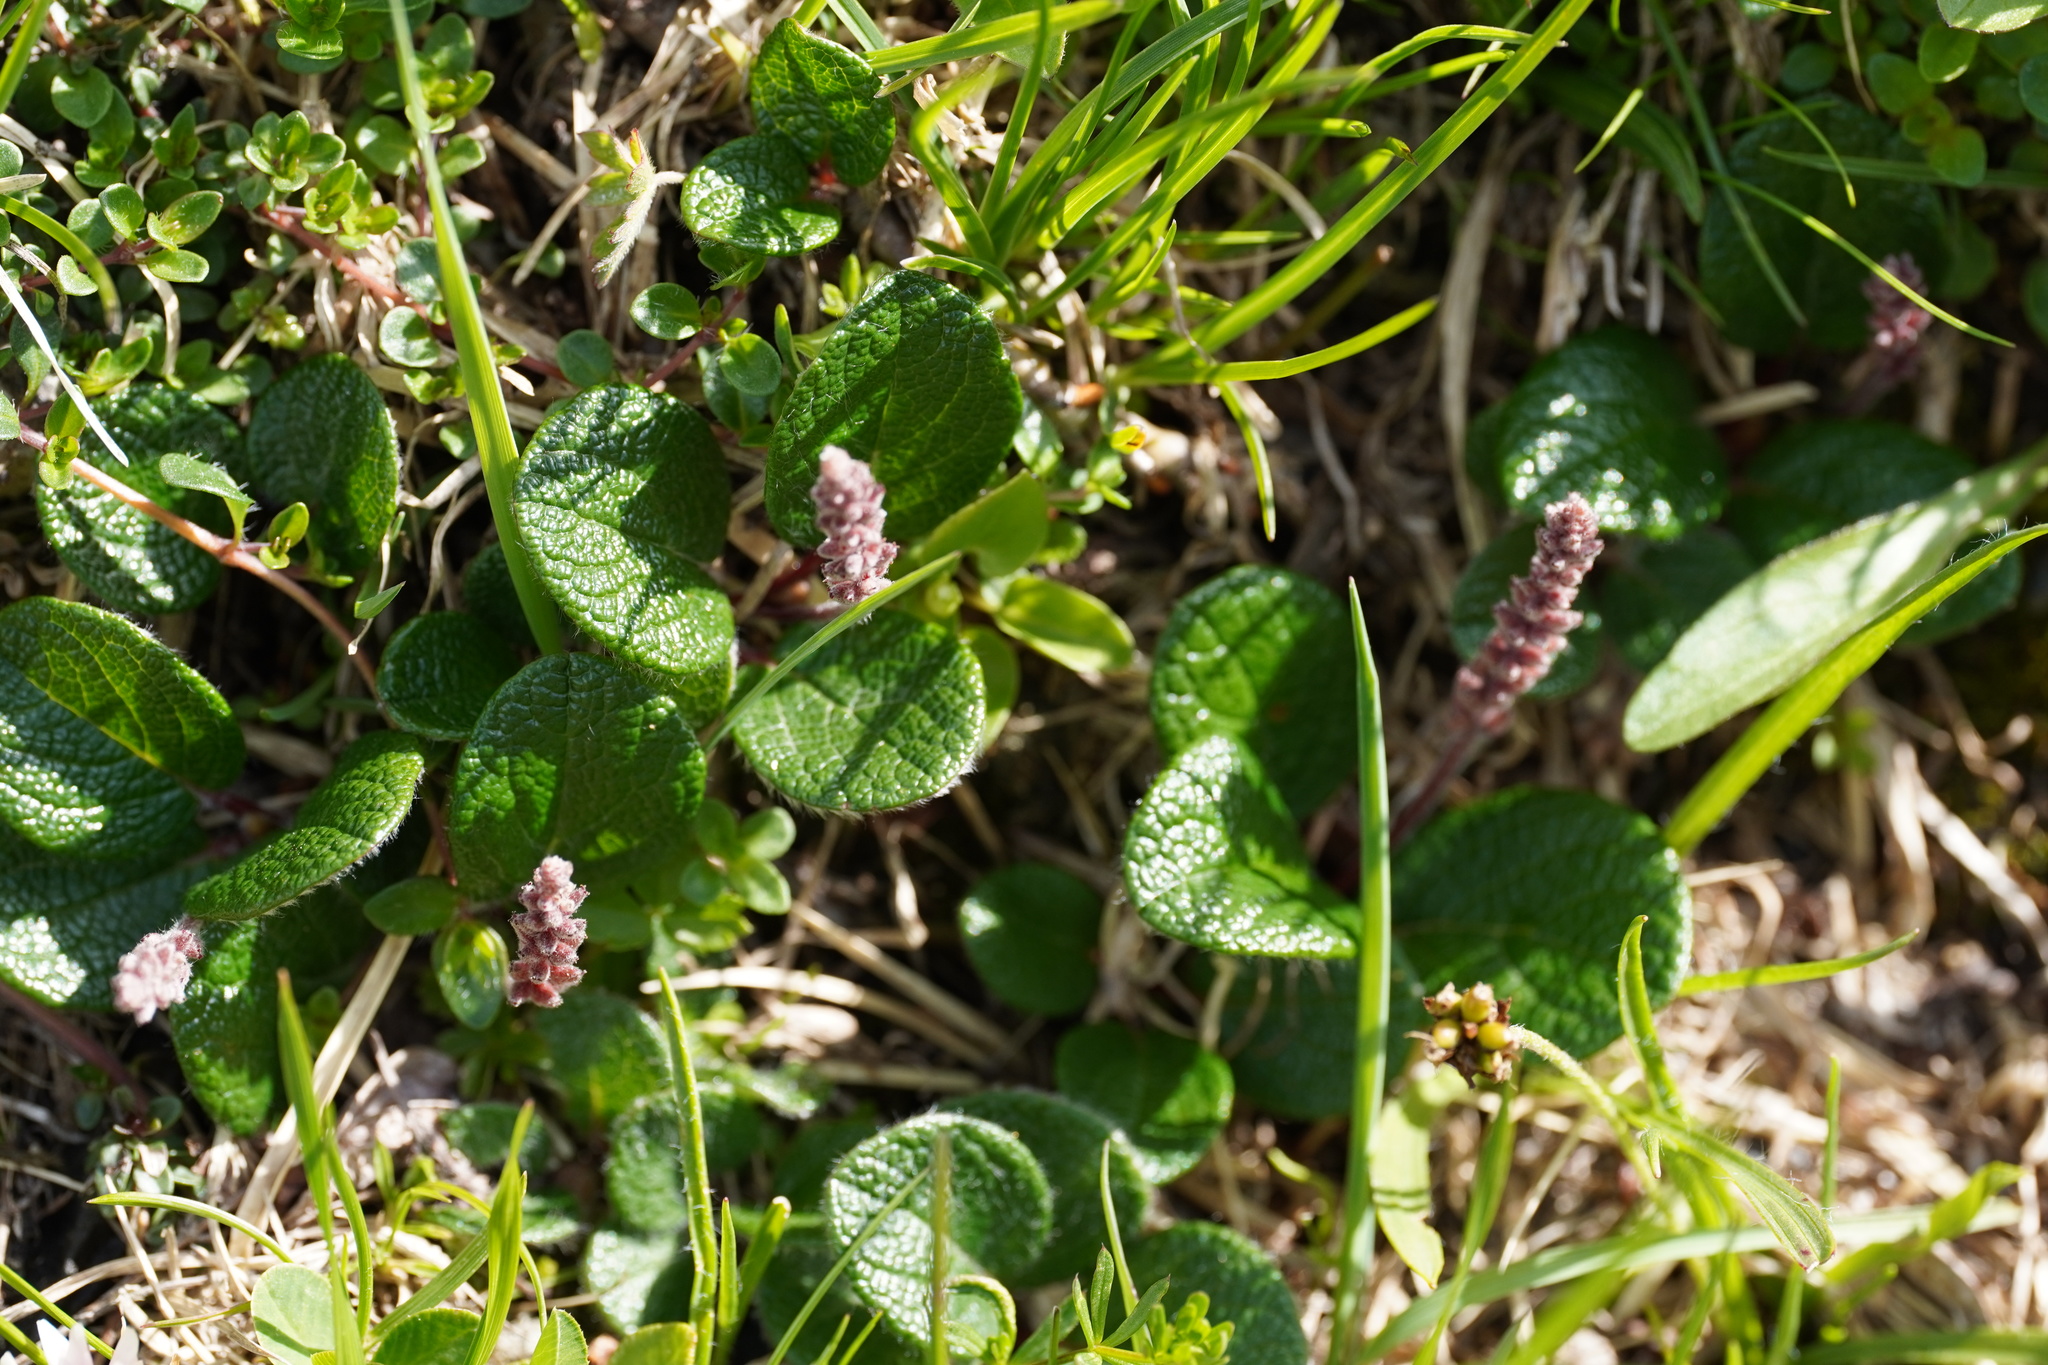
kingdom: Plantae
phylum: Tracheophyta
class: Magnoliopsida
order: Malpighiales
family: Salicaceae
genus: Salix
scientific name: Salix reticulata
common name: Net-leaved willow
